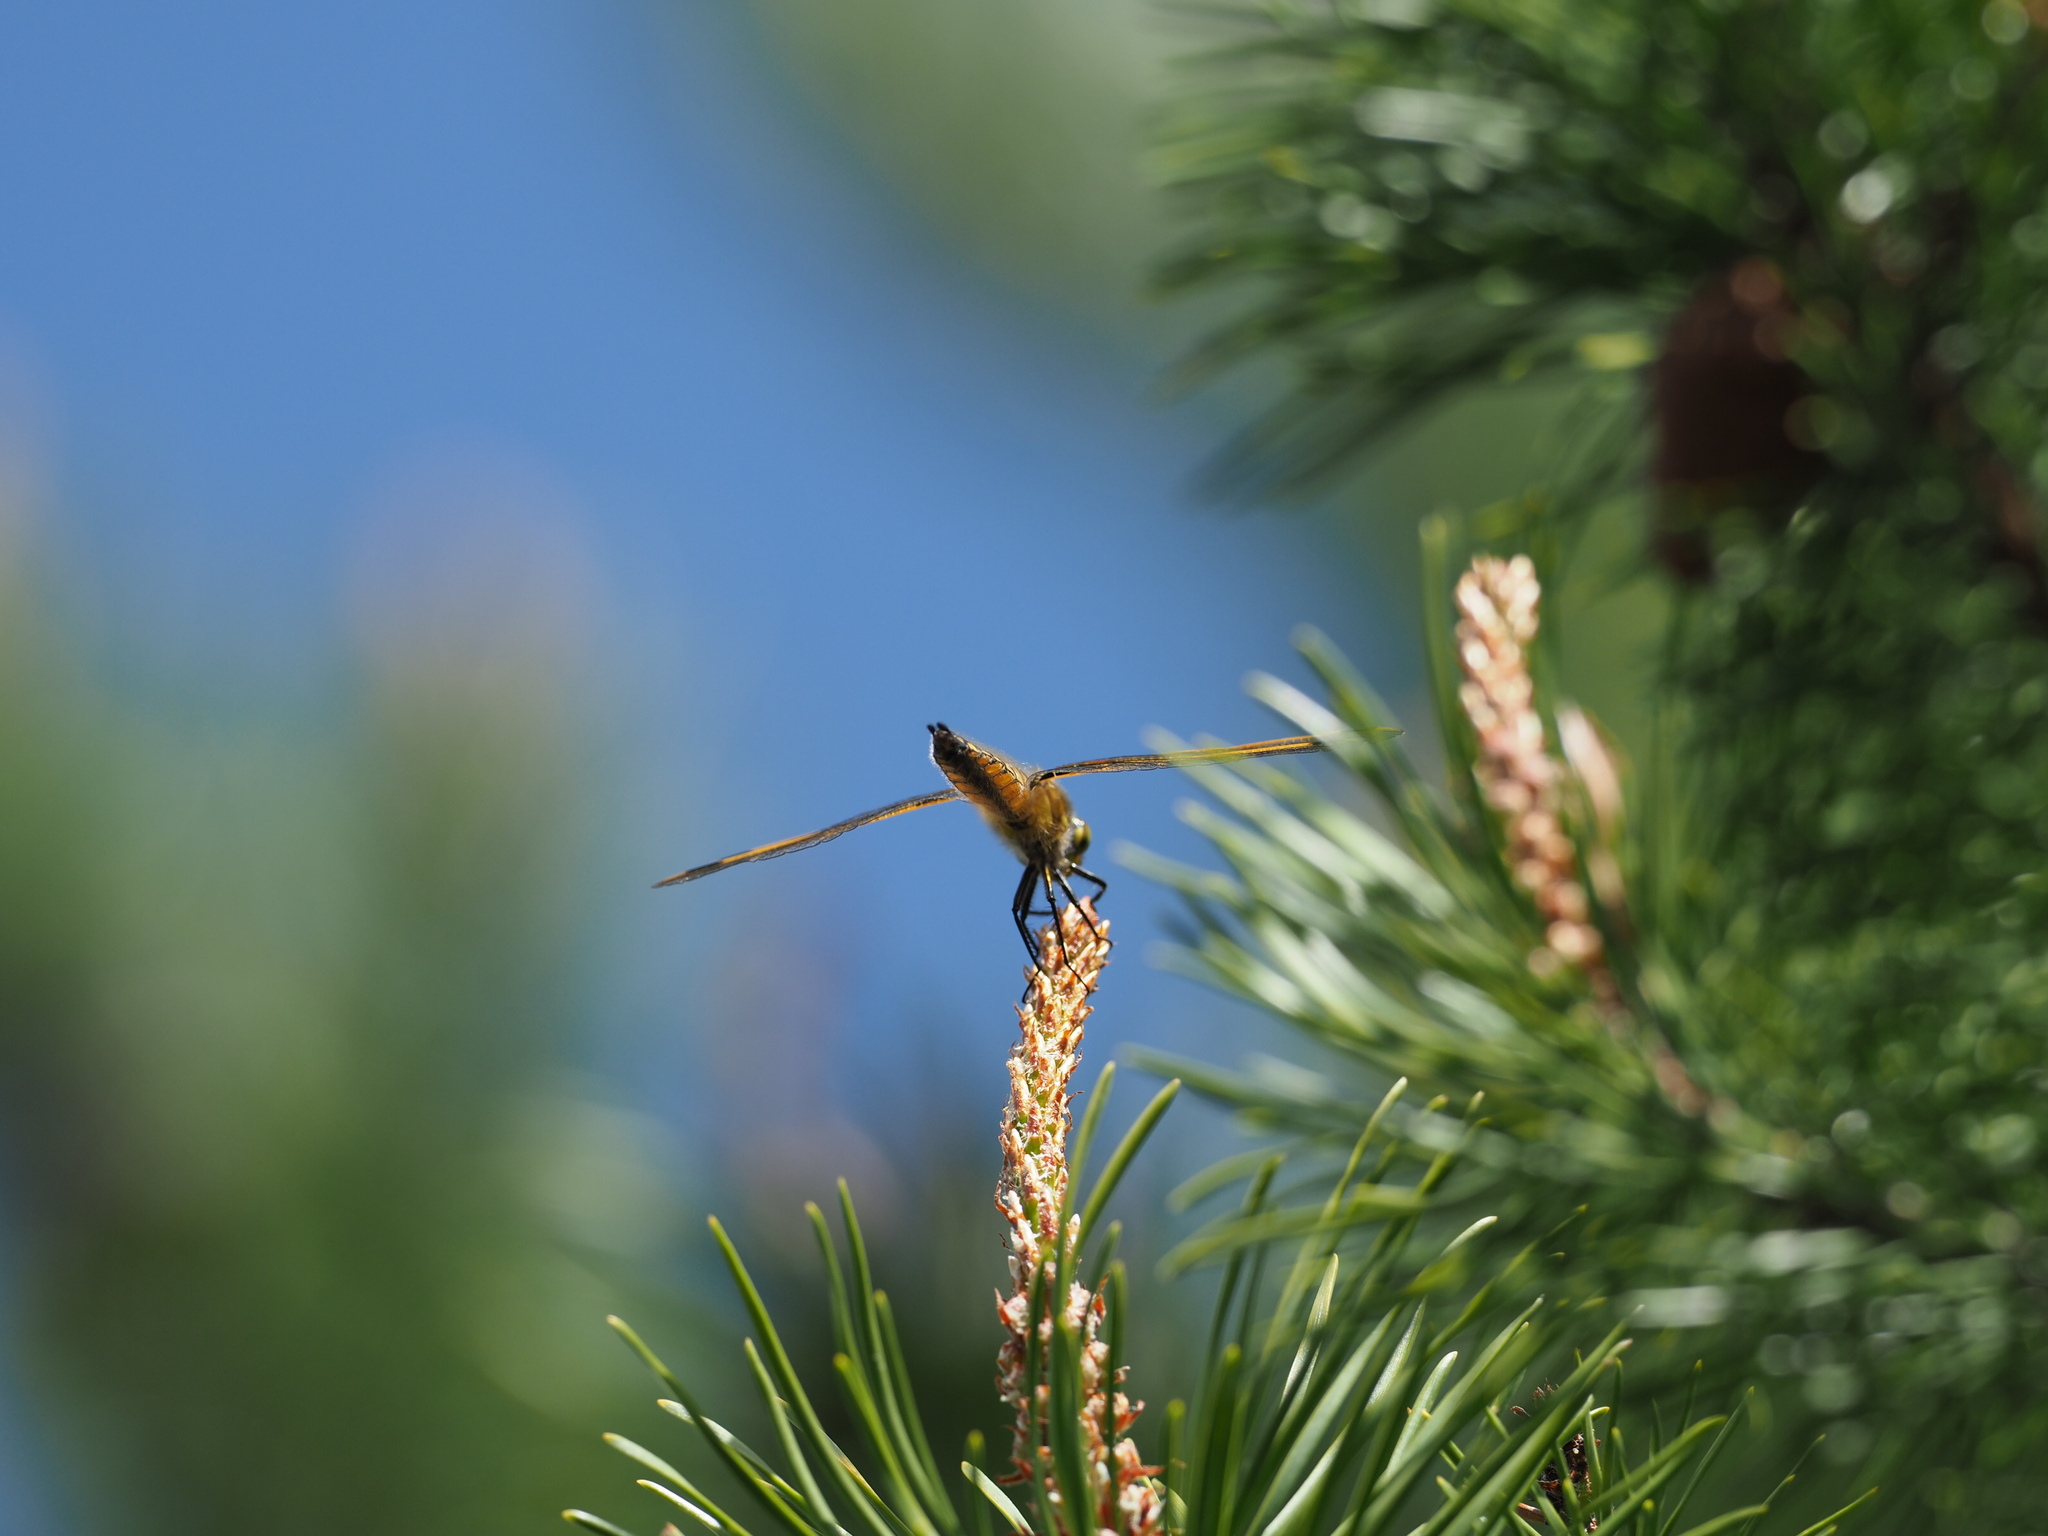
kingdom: Animalia
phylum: Arthropoda
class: Insecta
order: Odonata
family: Libellulidae
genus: Libellula
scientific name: Libellula quadrimaculata
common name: Four-spotted chaser
